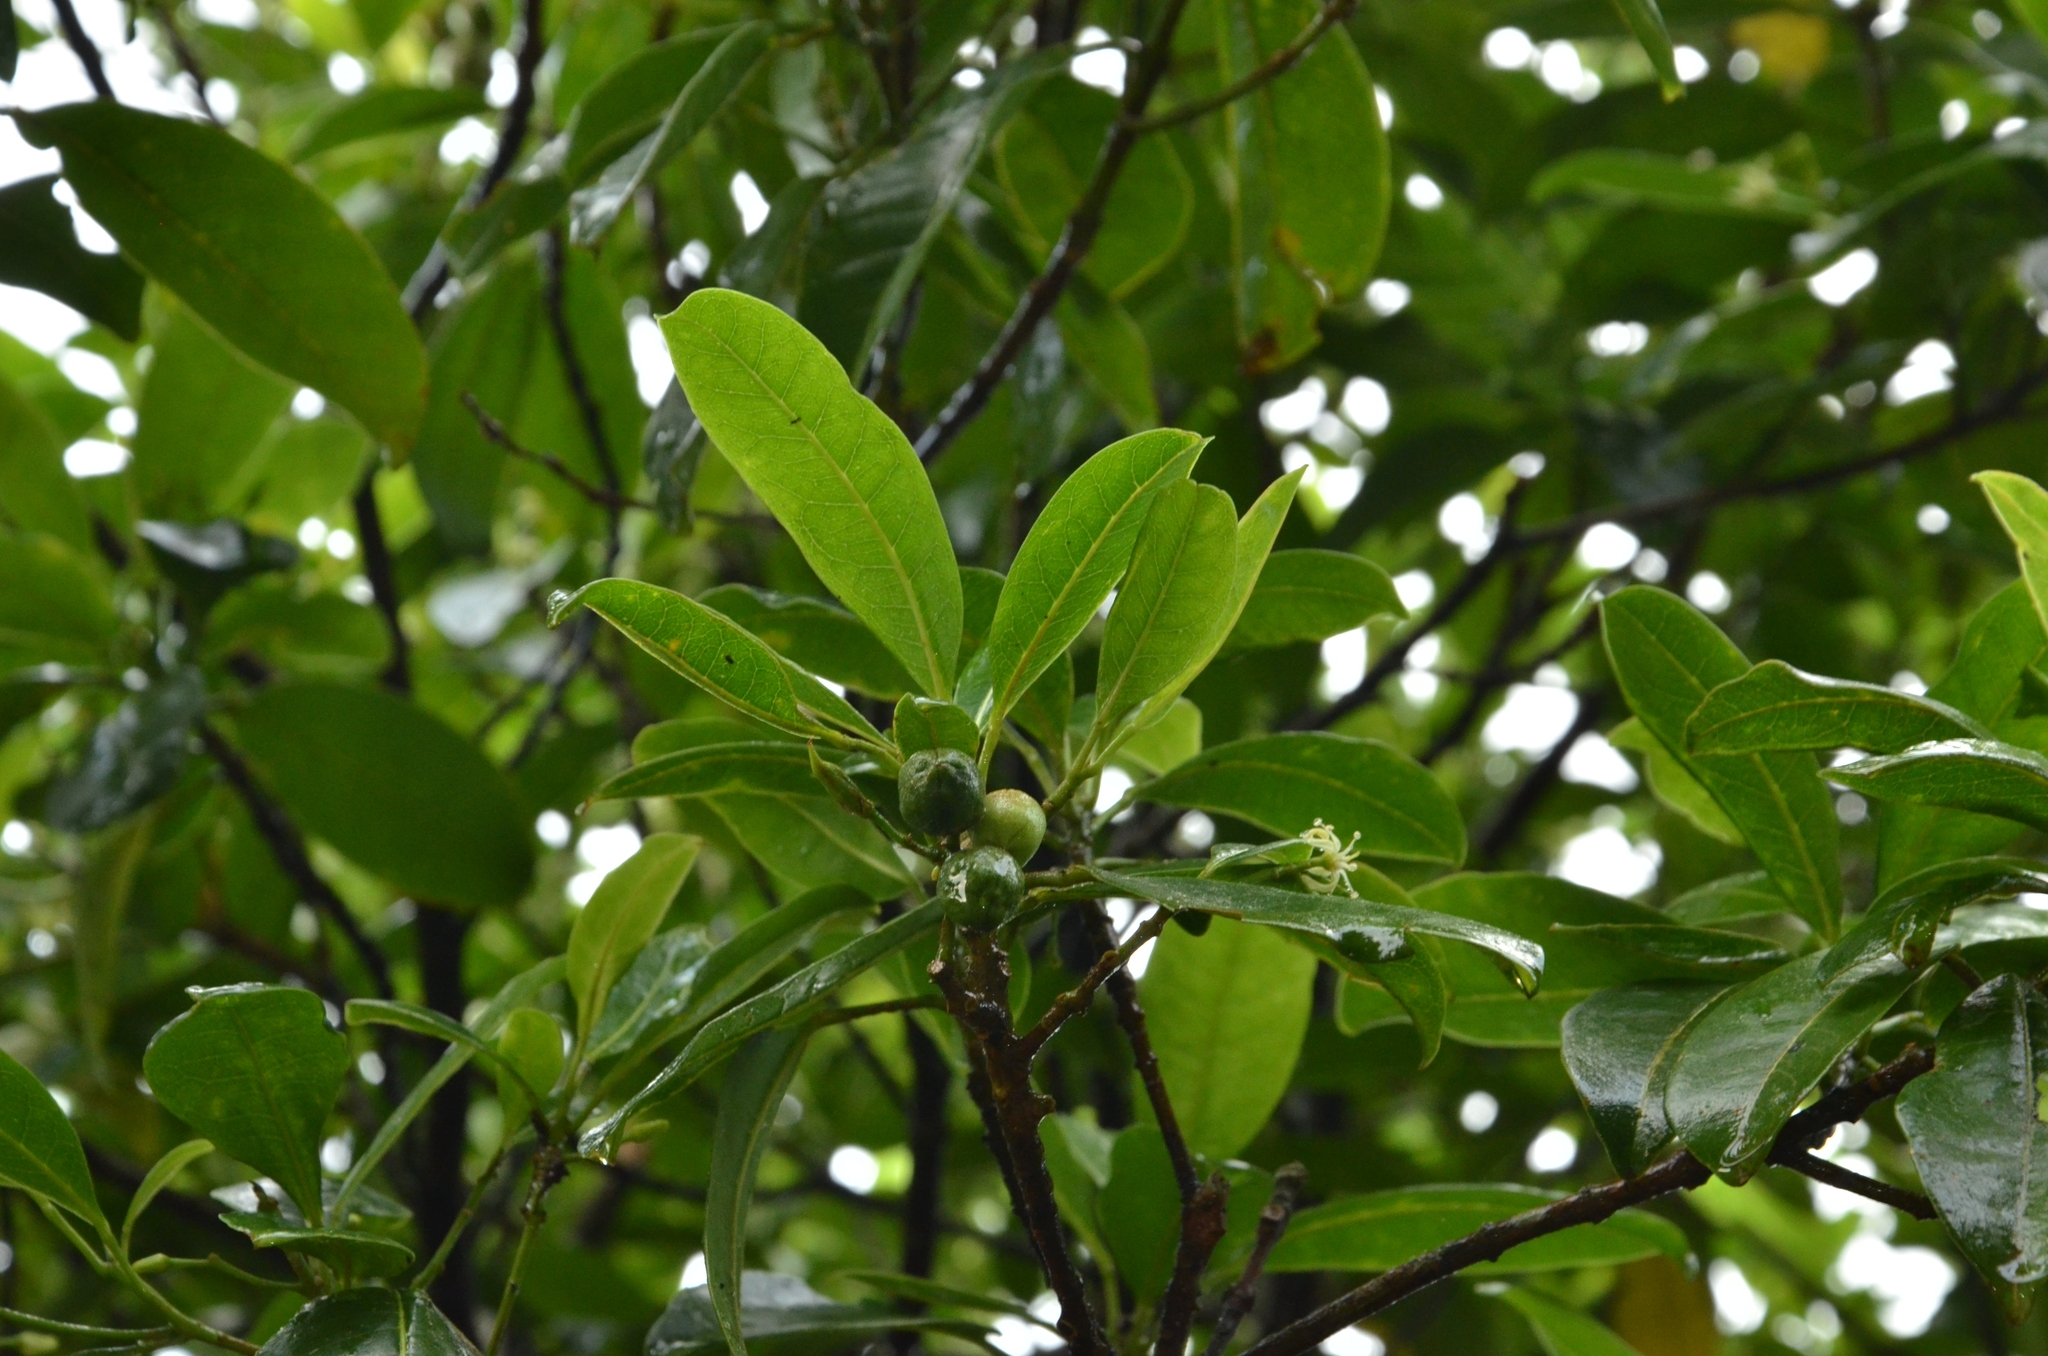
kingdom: Plantae
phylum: Tracheophyta
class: Magnoliopsida
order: Sapindales
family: Rutaceae
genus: Acronychia
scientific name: Acronychia pedunculata
